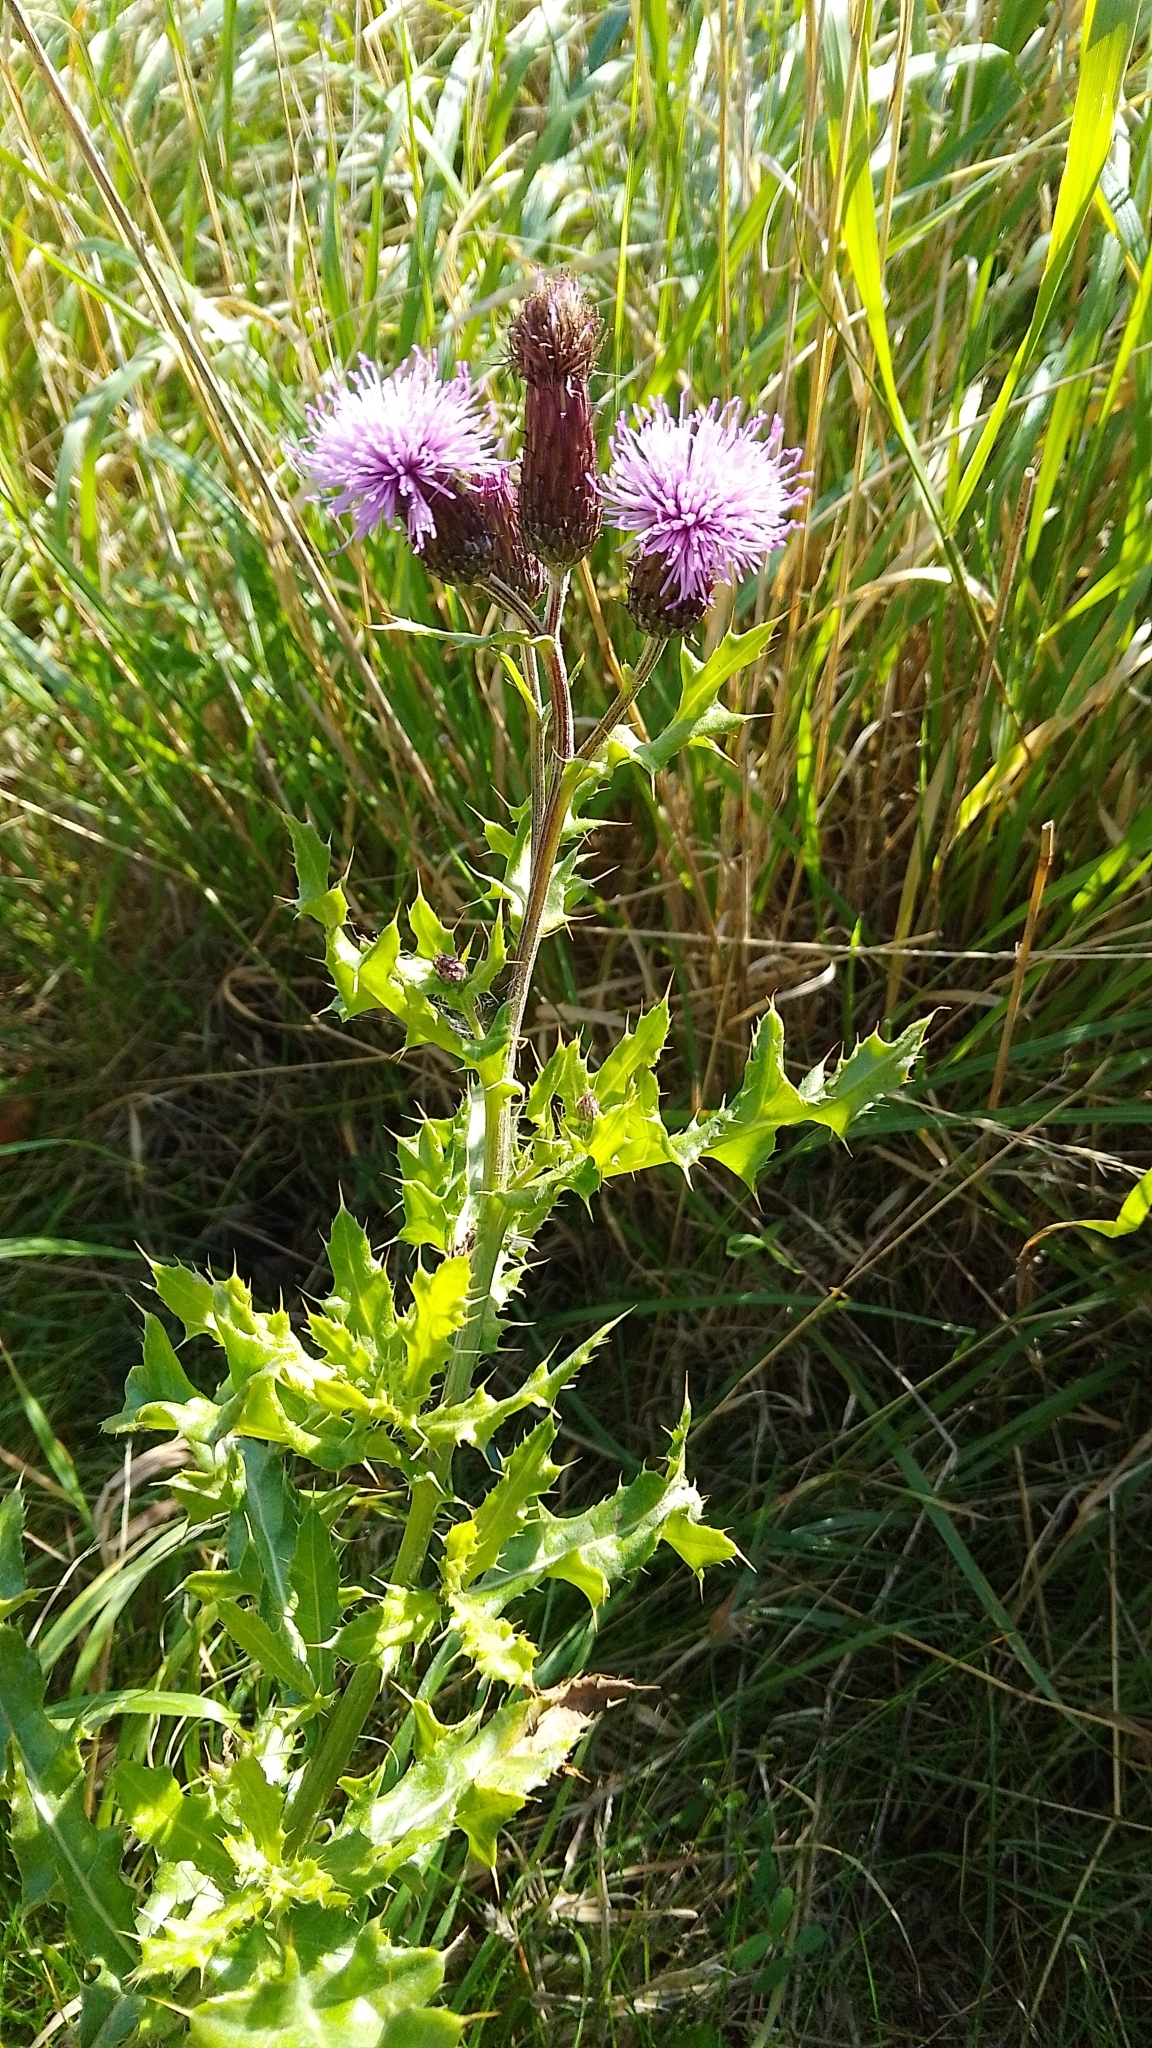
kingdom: Plantae
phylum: Tracheophyta
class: Magnoliopsida
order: Asterales
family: Asteraceae
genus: Cirsium
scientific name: Cirsium arvense
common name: Creeping thistle
